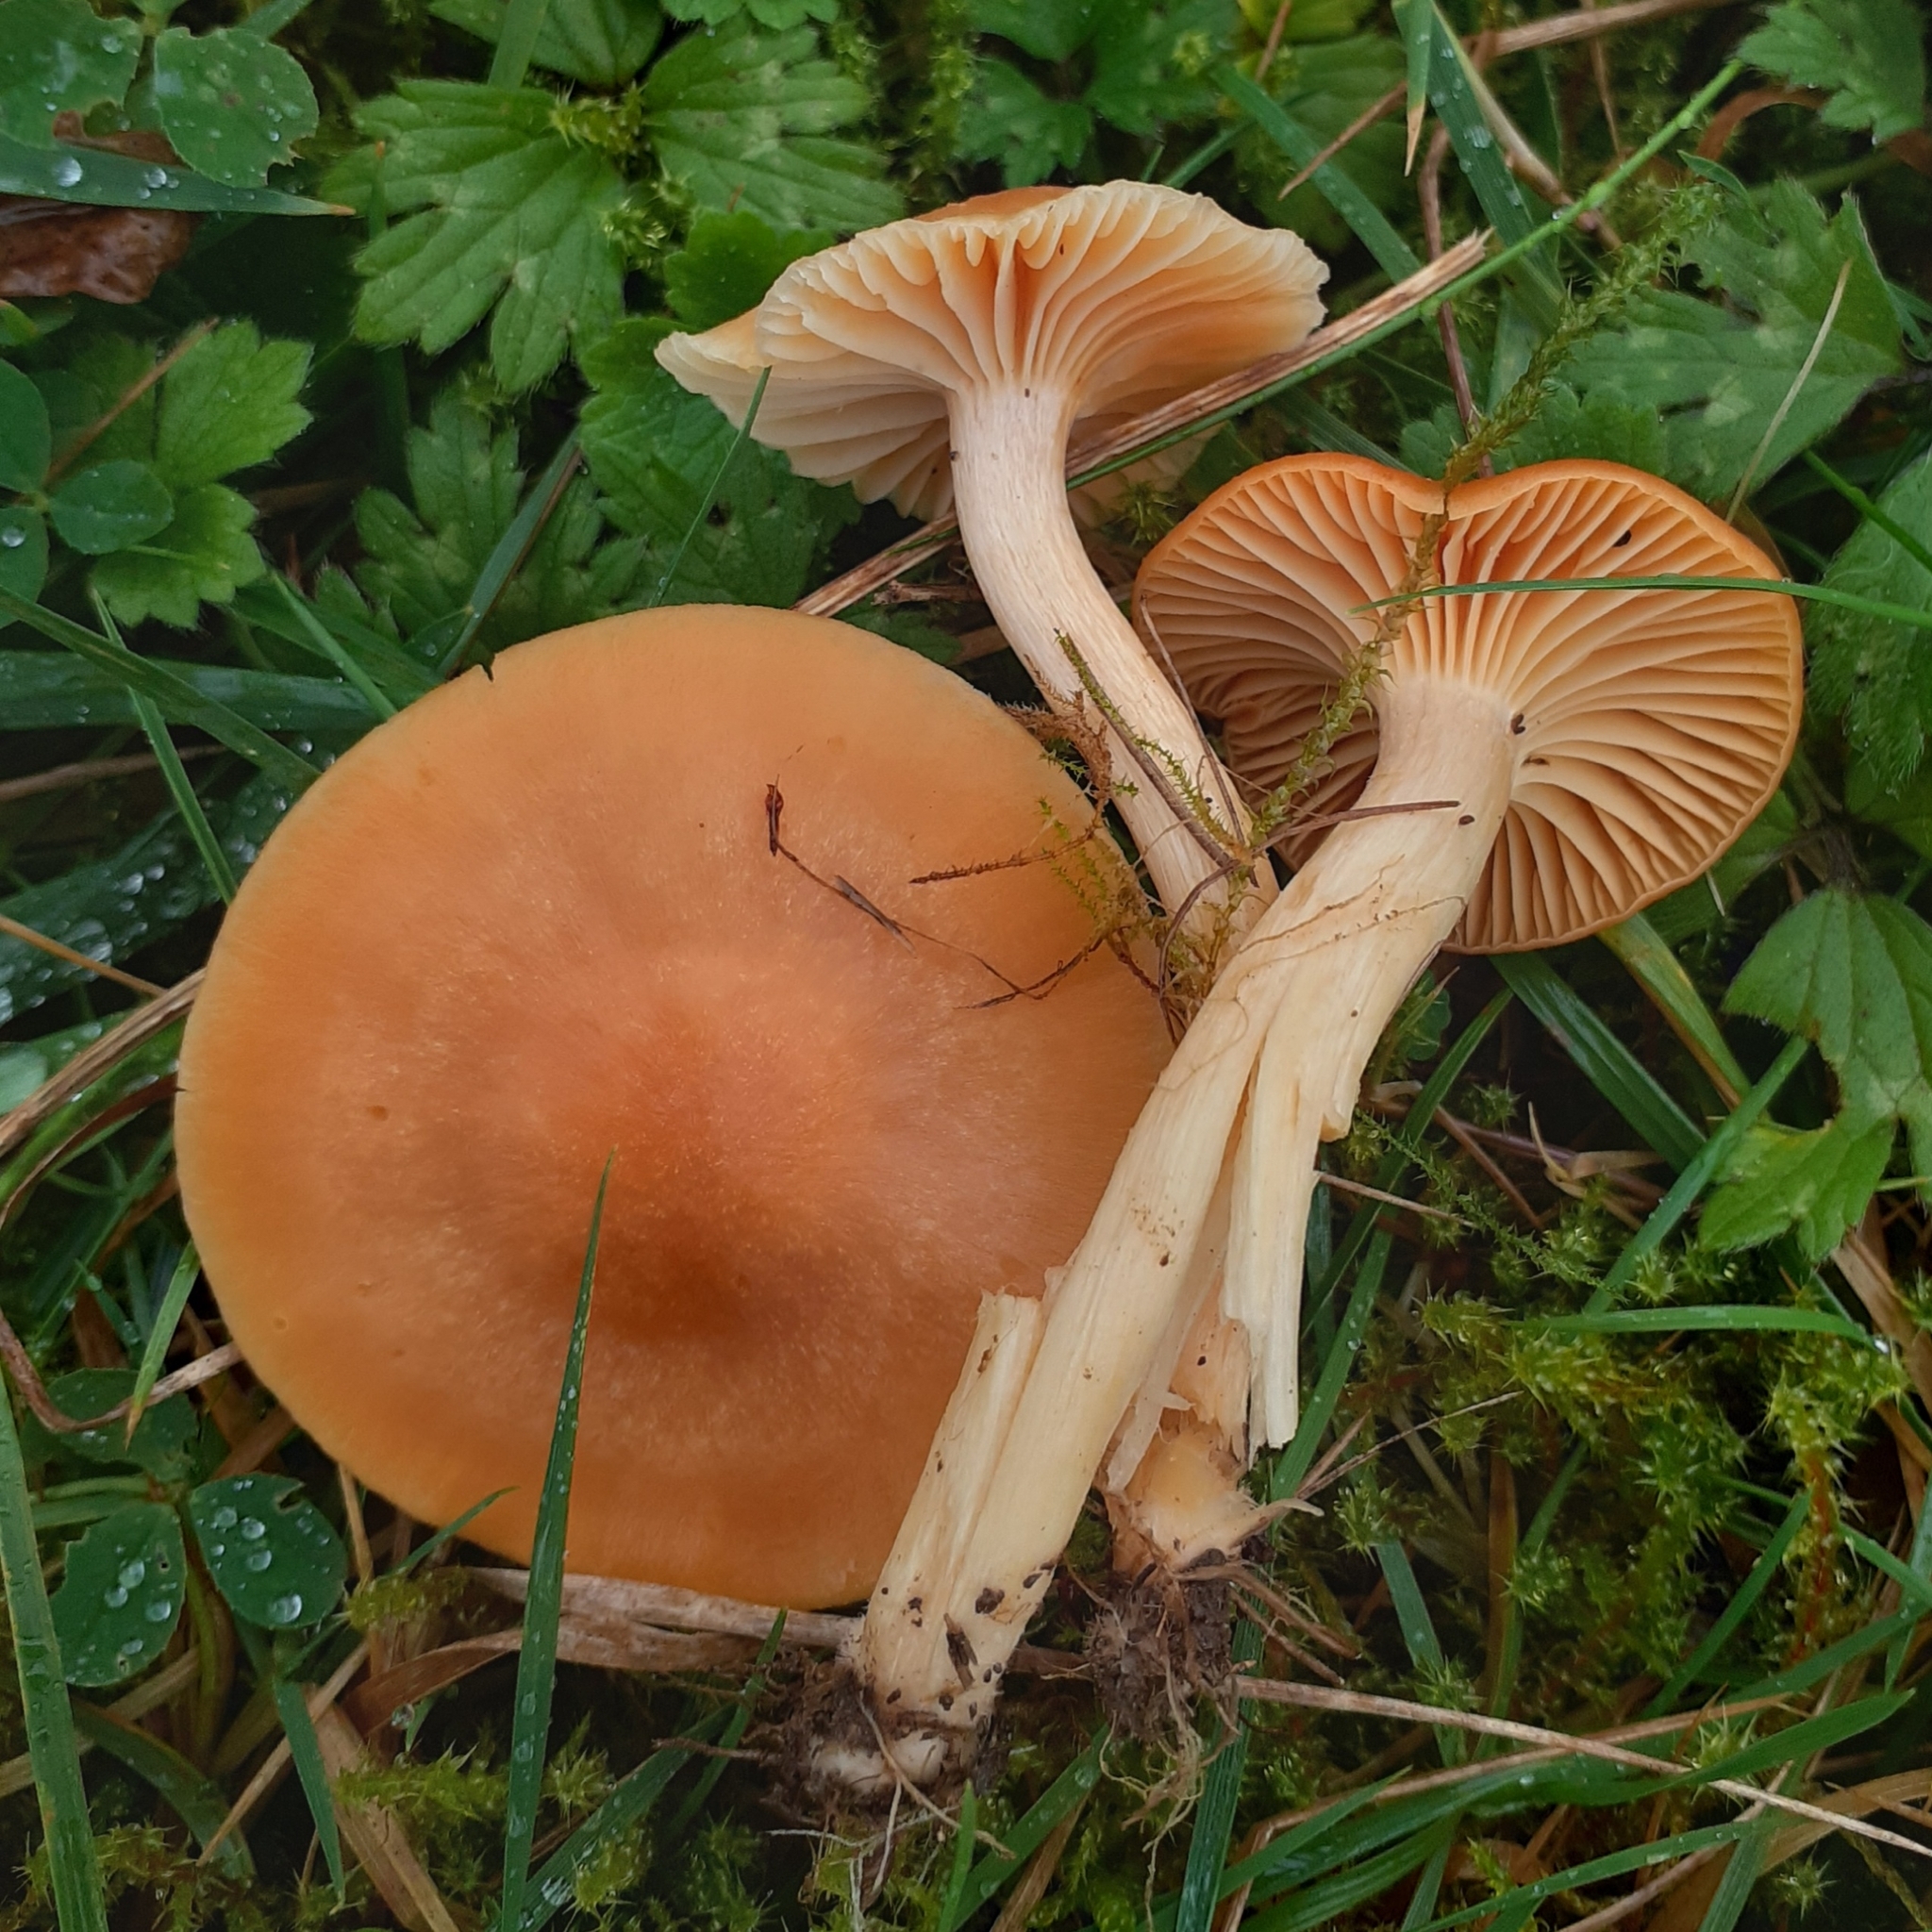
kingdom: Fungi
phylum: Basidiomycota
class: Agaricomycetes
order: Agaricales
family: Hygrophoraceae
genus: Cuphophyllus
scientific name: Cuphophyllus pratensis
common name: Meadow waxcap
